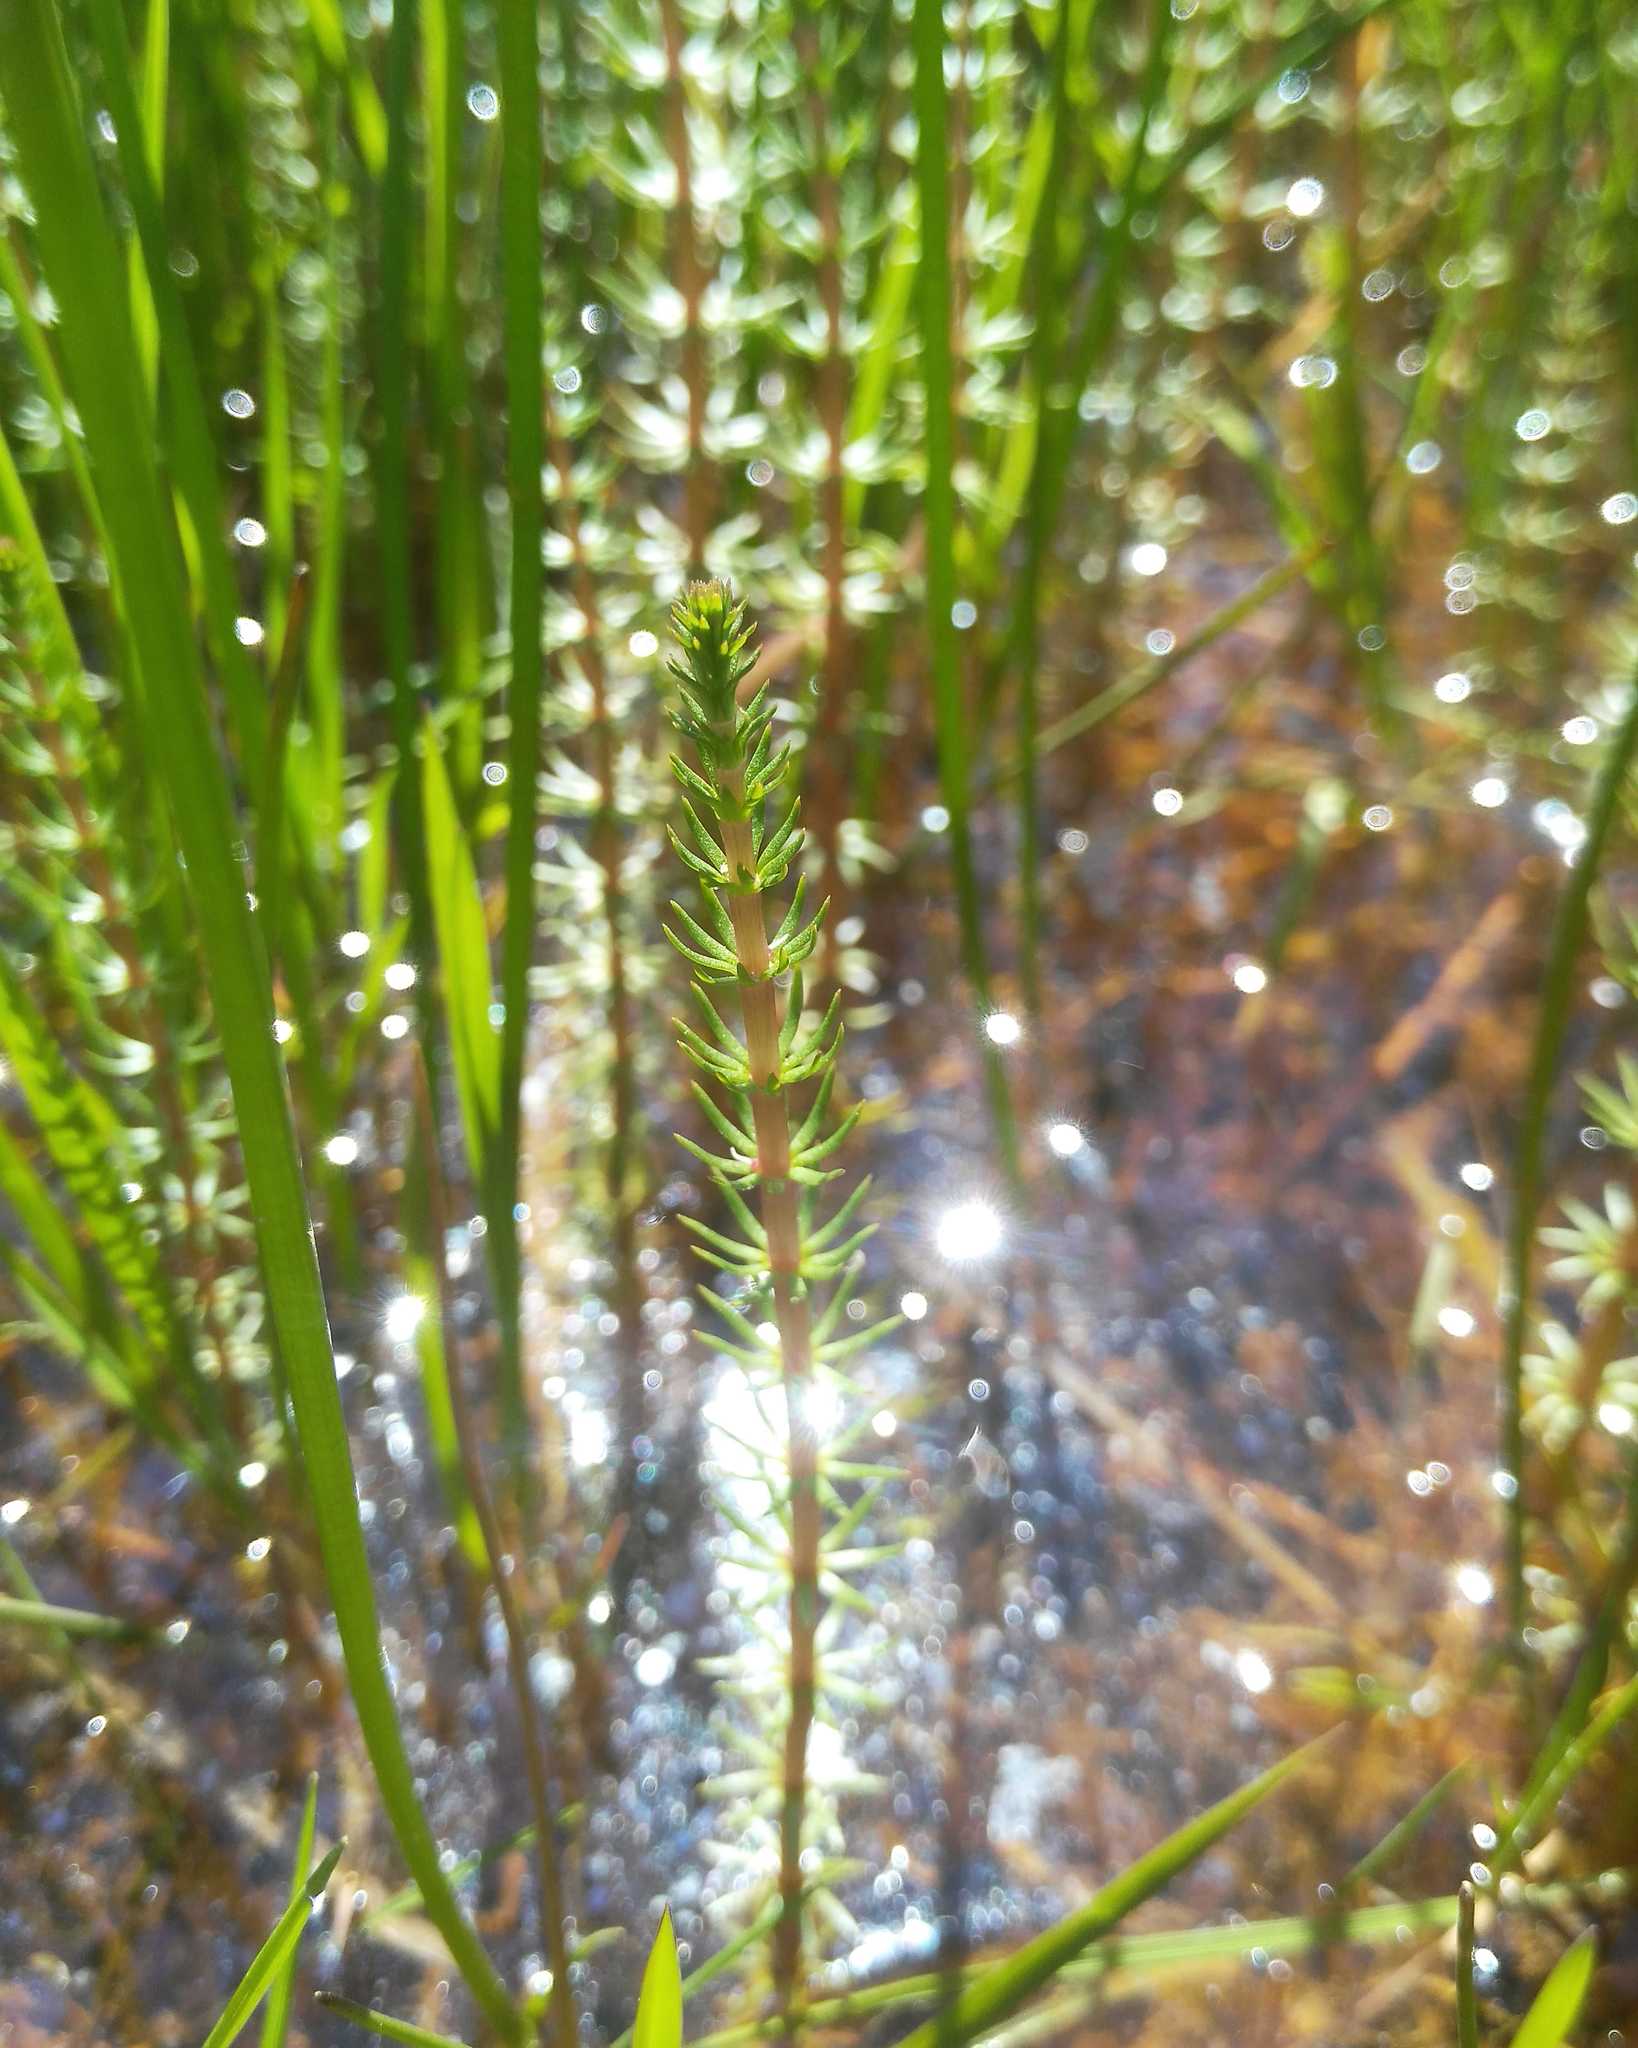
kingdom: Plantae
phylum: Tracheophyta
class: Magnoliopsida
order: Lamiales
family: Plantaginaceae
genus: Hippuris
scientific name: Hippuris vulgaris
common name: Mare's-tail
